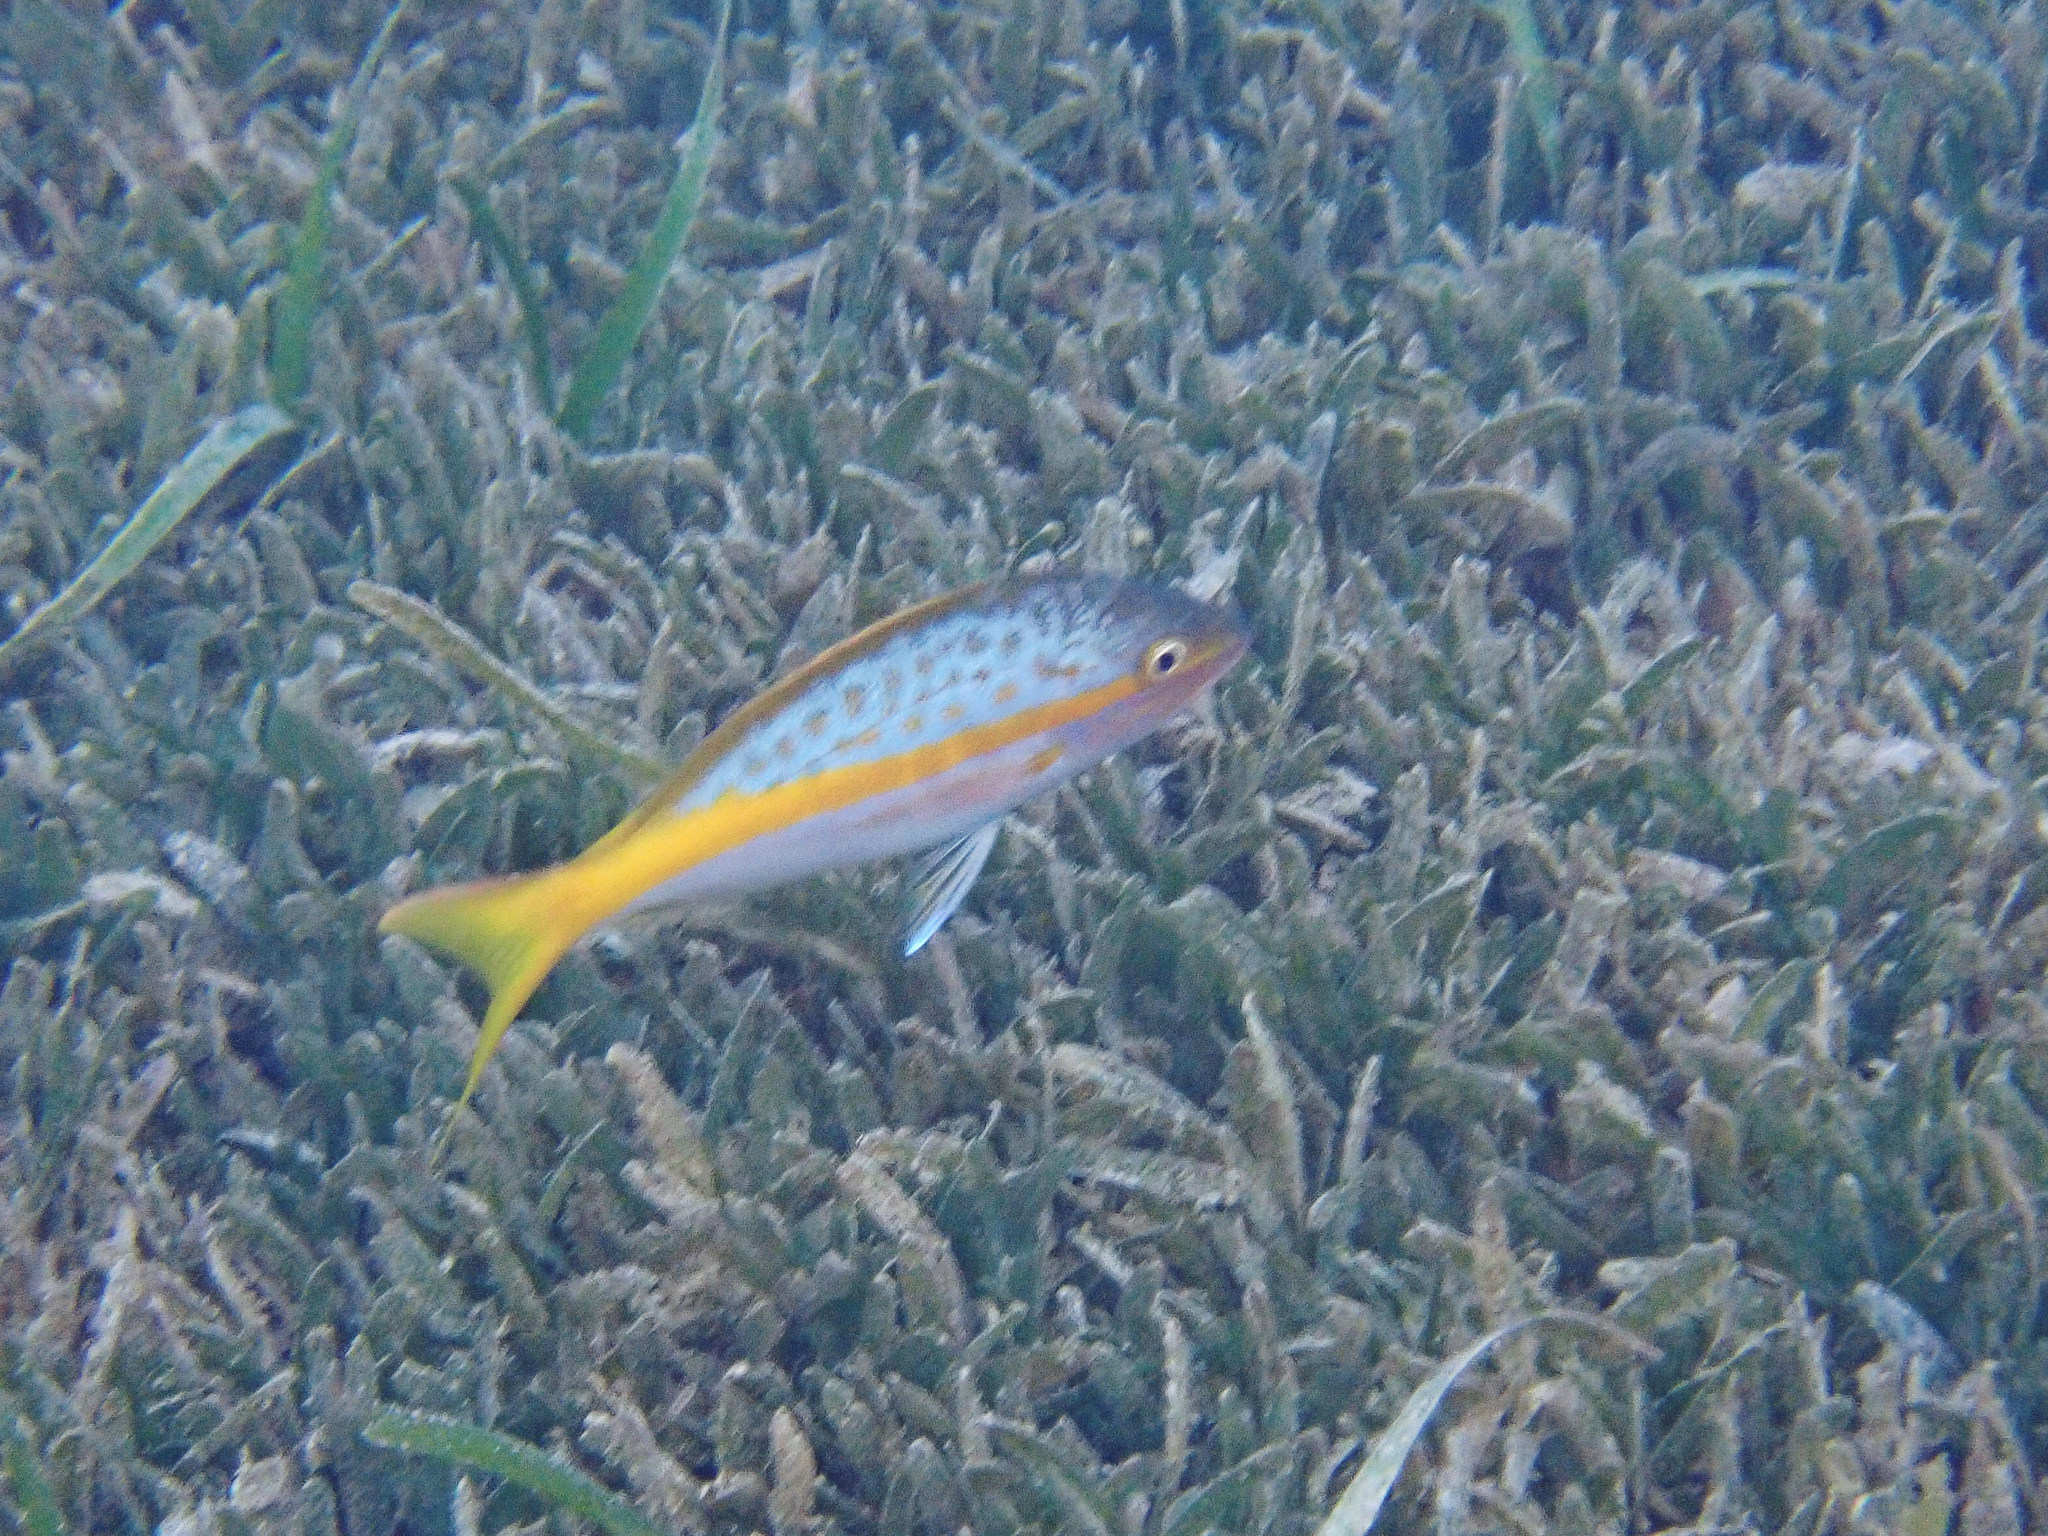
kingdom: Animalia
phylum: Chordata
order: Perciformes
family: Lutjanidae
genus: Ocyurus
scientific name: Ocyurus chrysurus
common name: Yellowtail snapper
